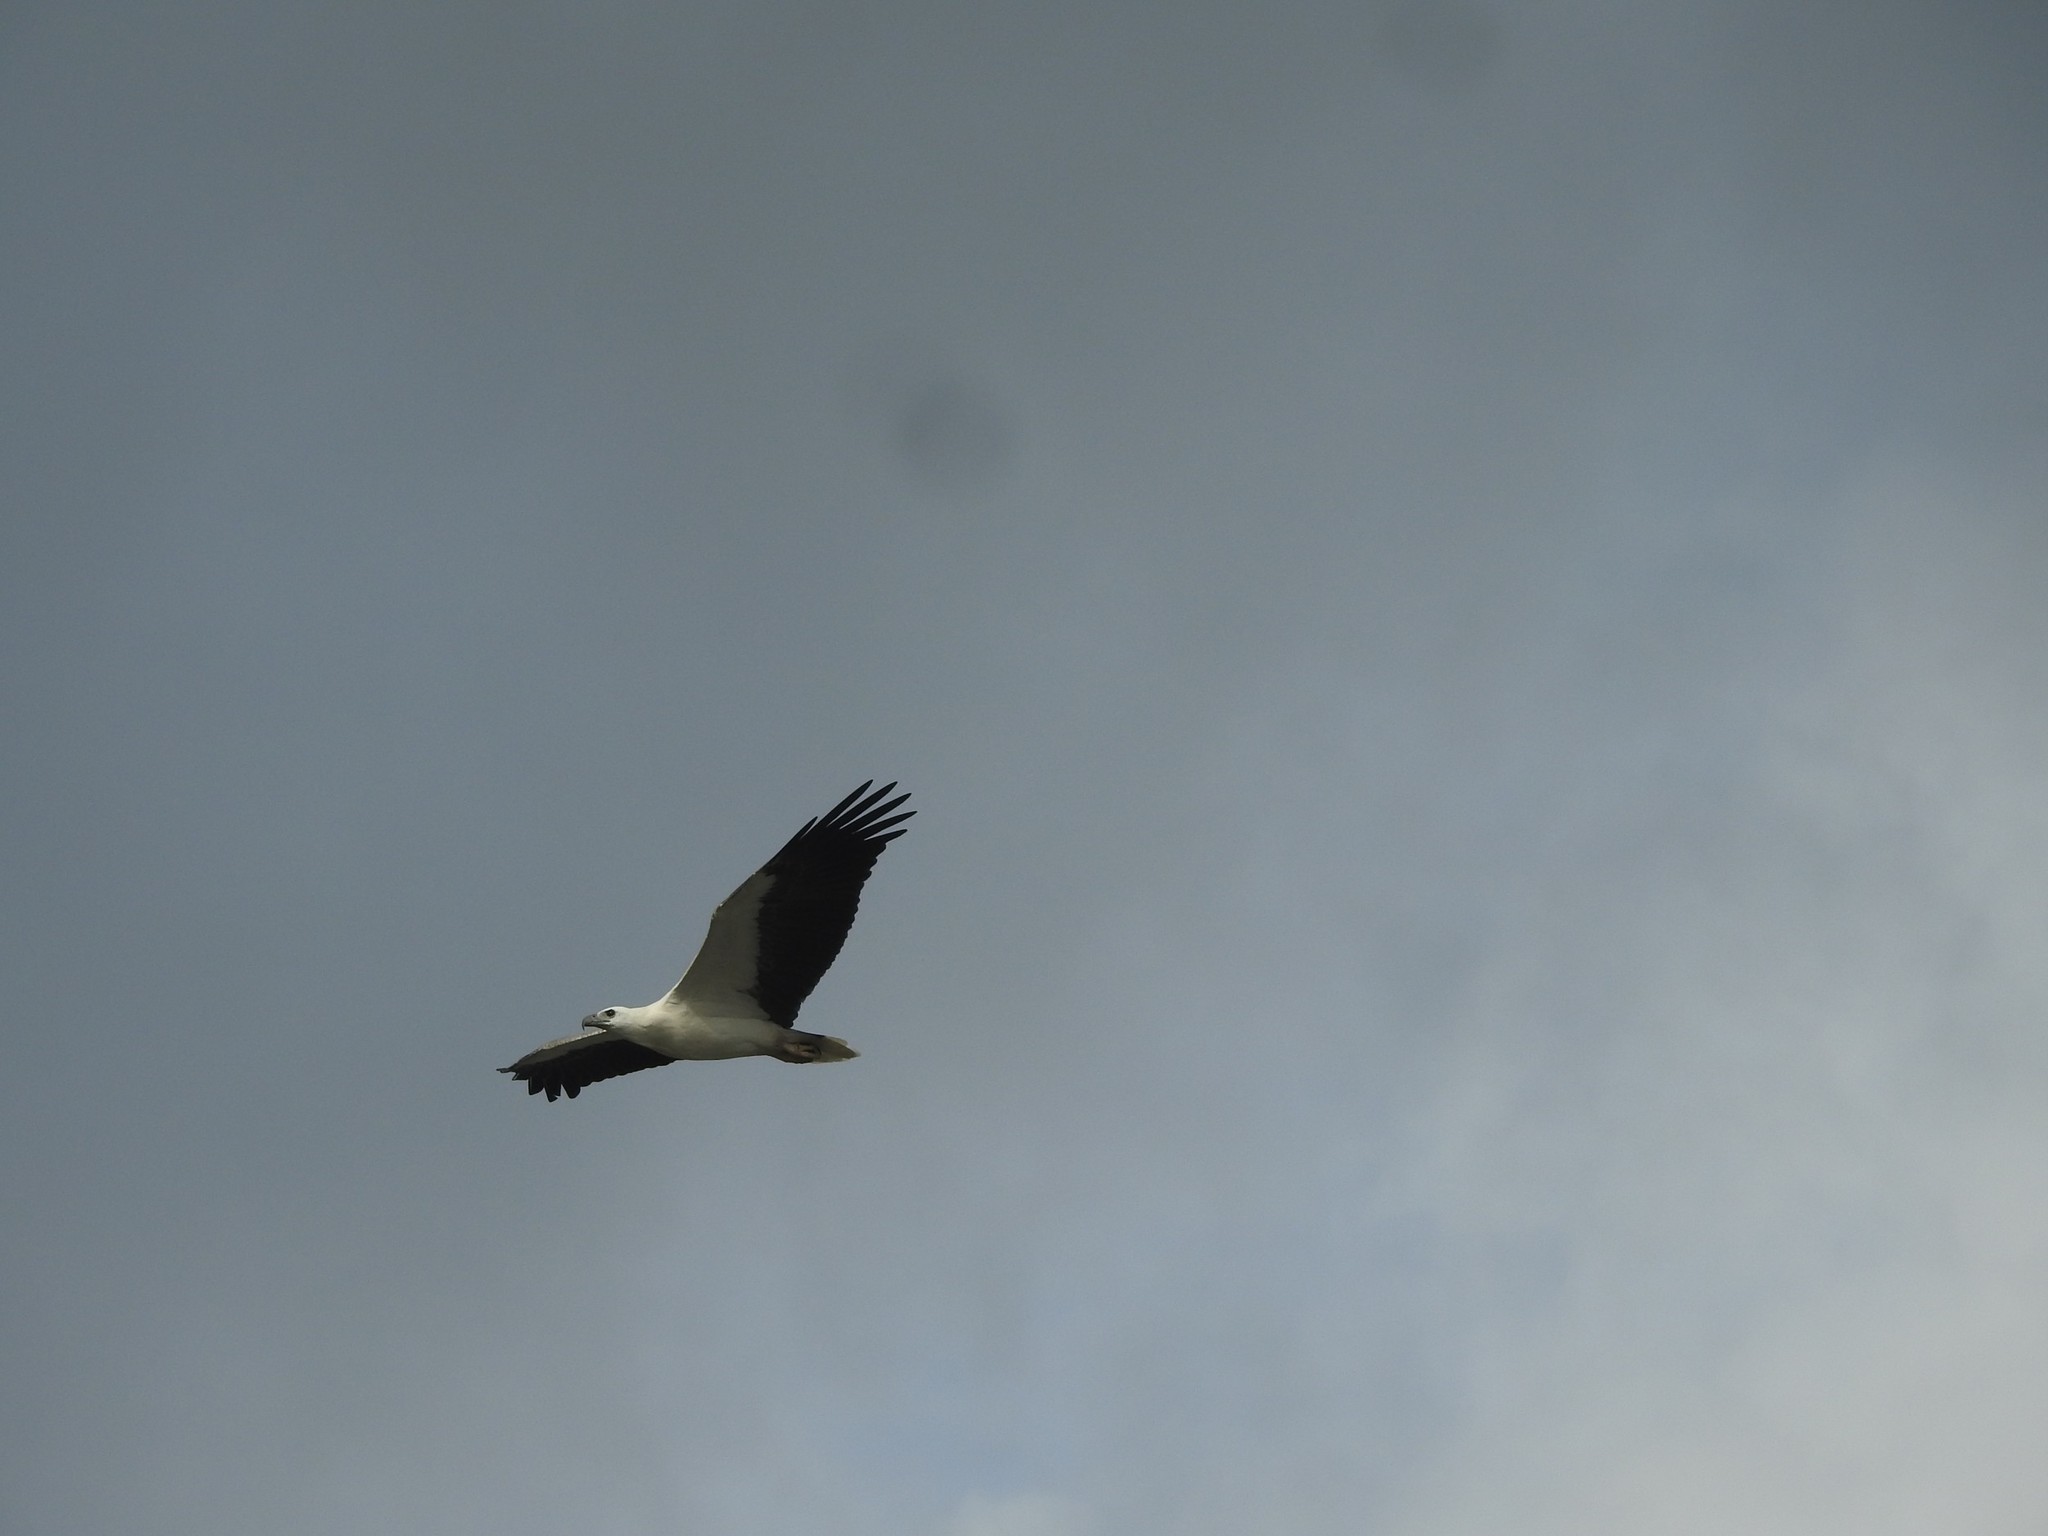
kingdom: Animalia
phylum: Chordata
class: Aves
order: Accipitriformes
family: Accipitridae
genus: Haliaeetus
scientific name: Haliaeetus leucogaster
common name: White-bellied sea eagle
